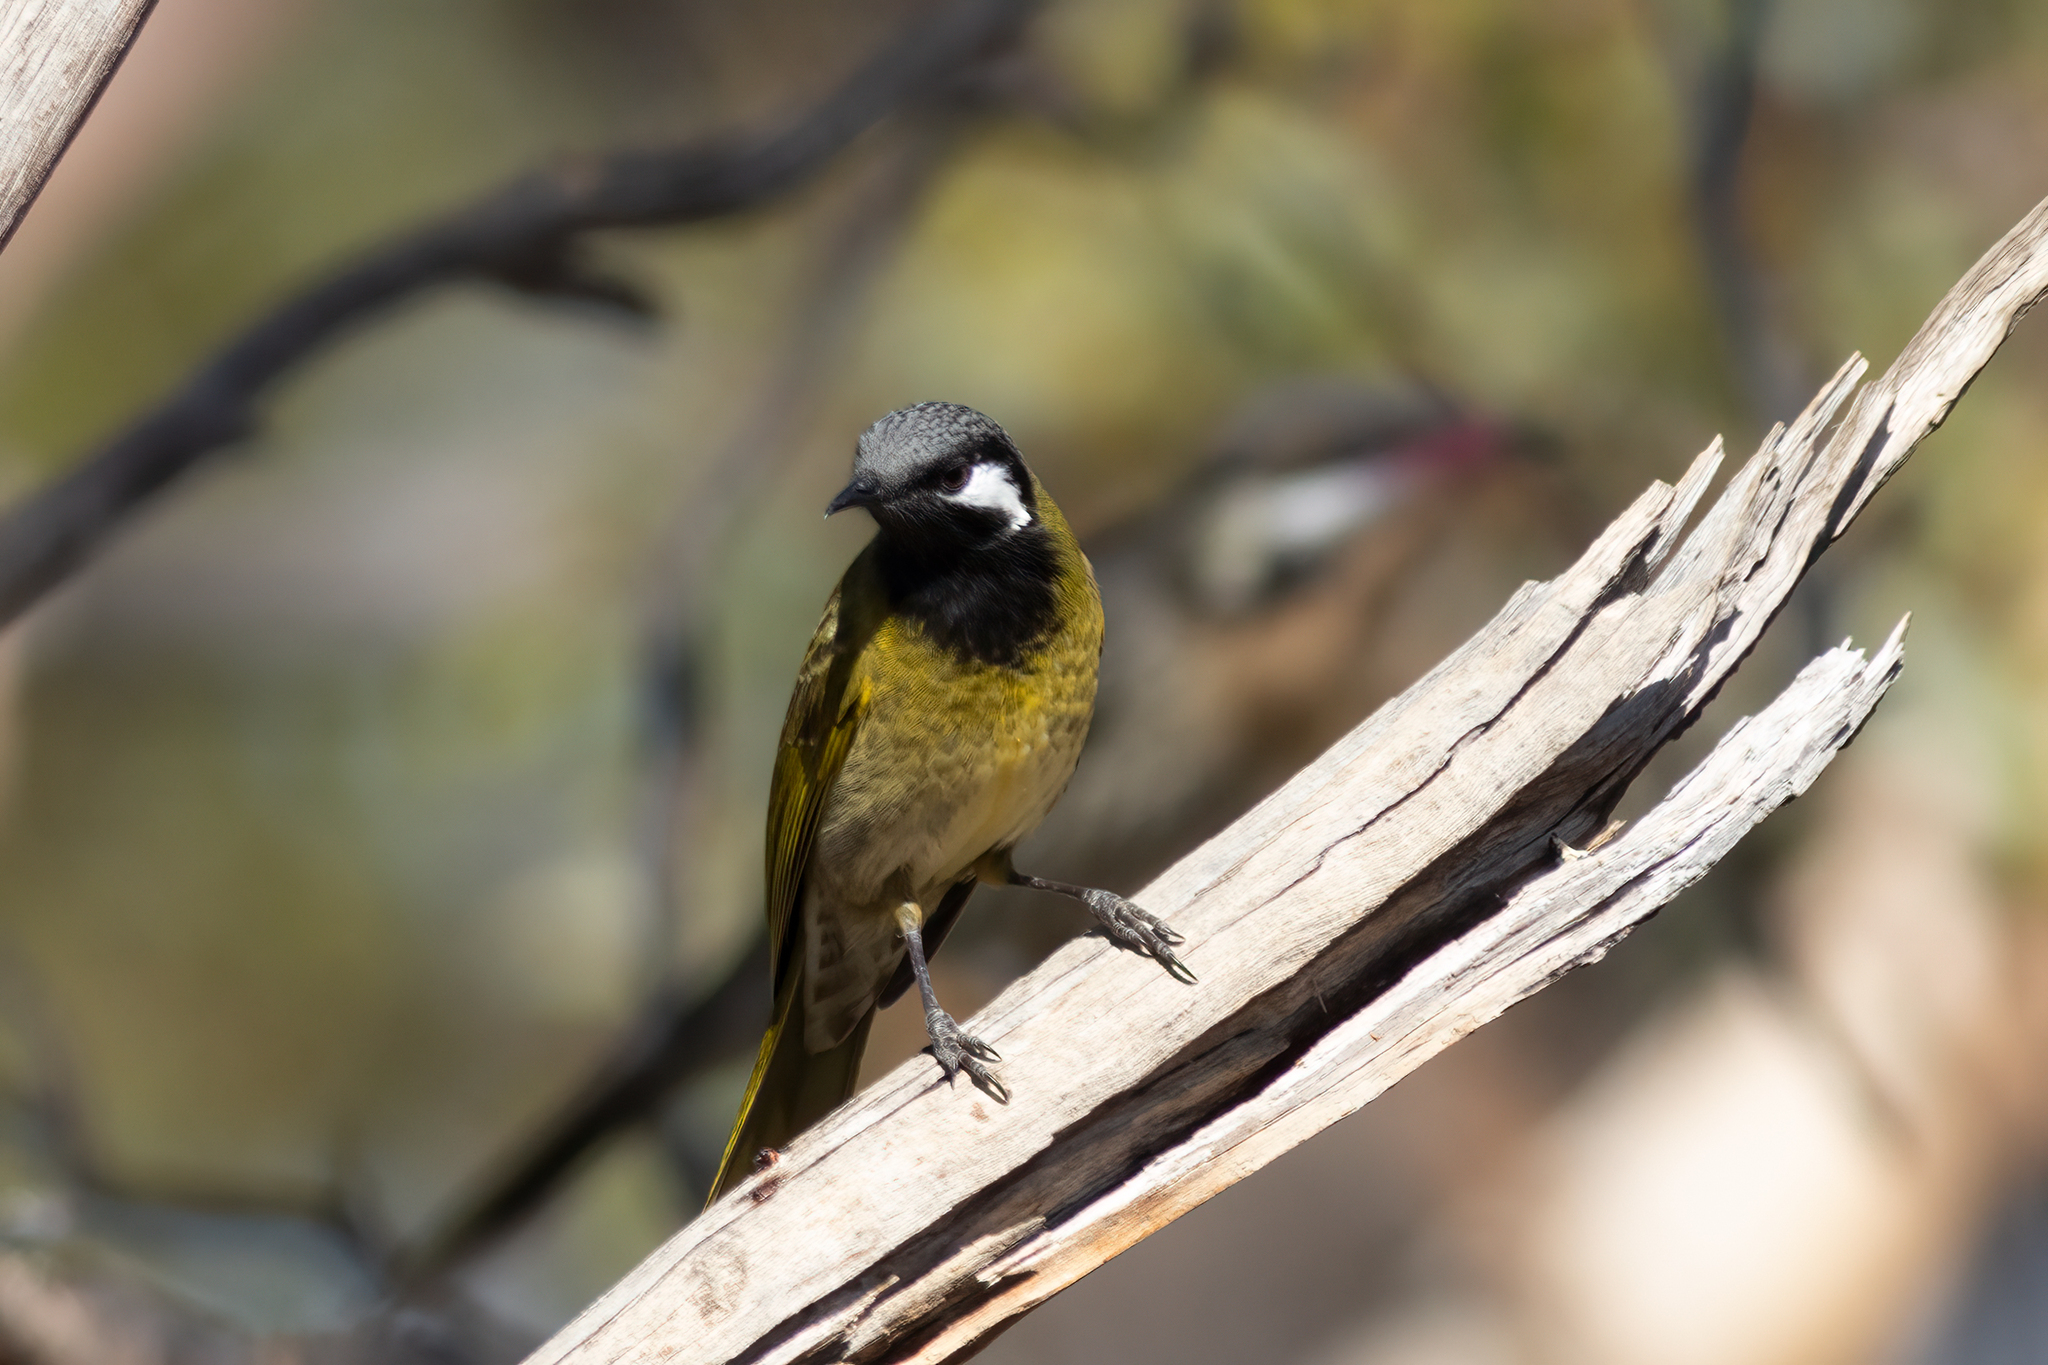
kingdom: Animalia
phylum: Chordata
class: Aves
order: Passeriformes
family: Meliphagidae
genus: Nesoptilotis
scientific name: Nesoptilotis leucotis
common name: White-eared honeyeater
